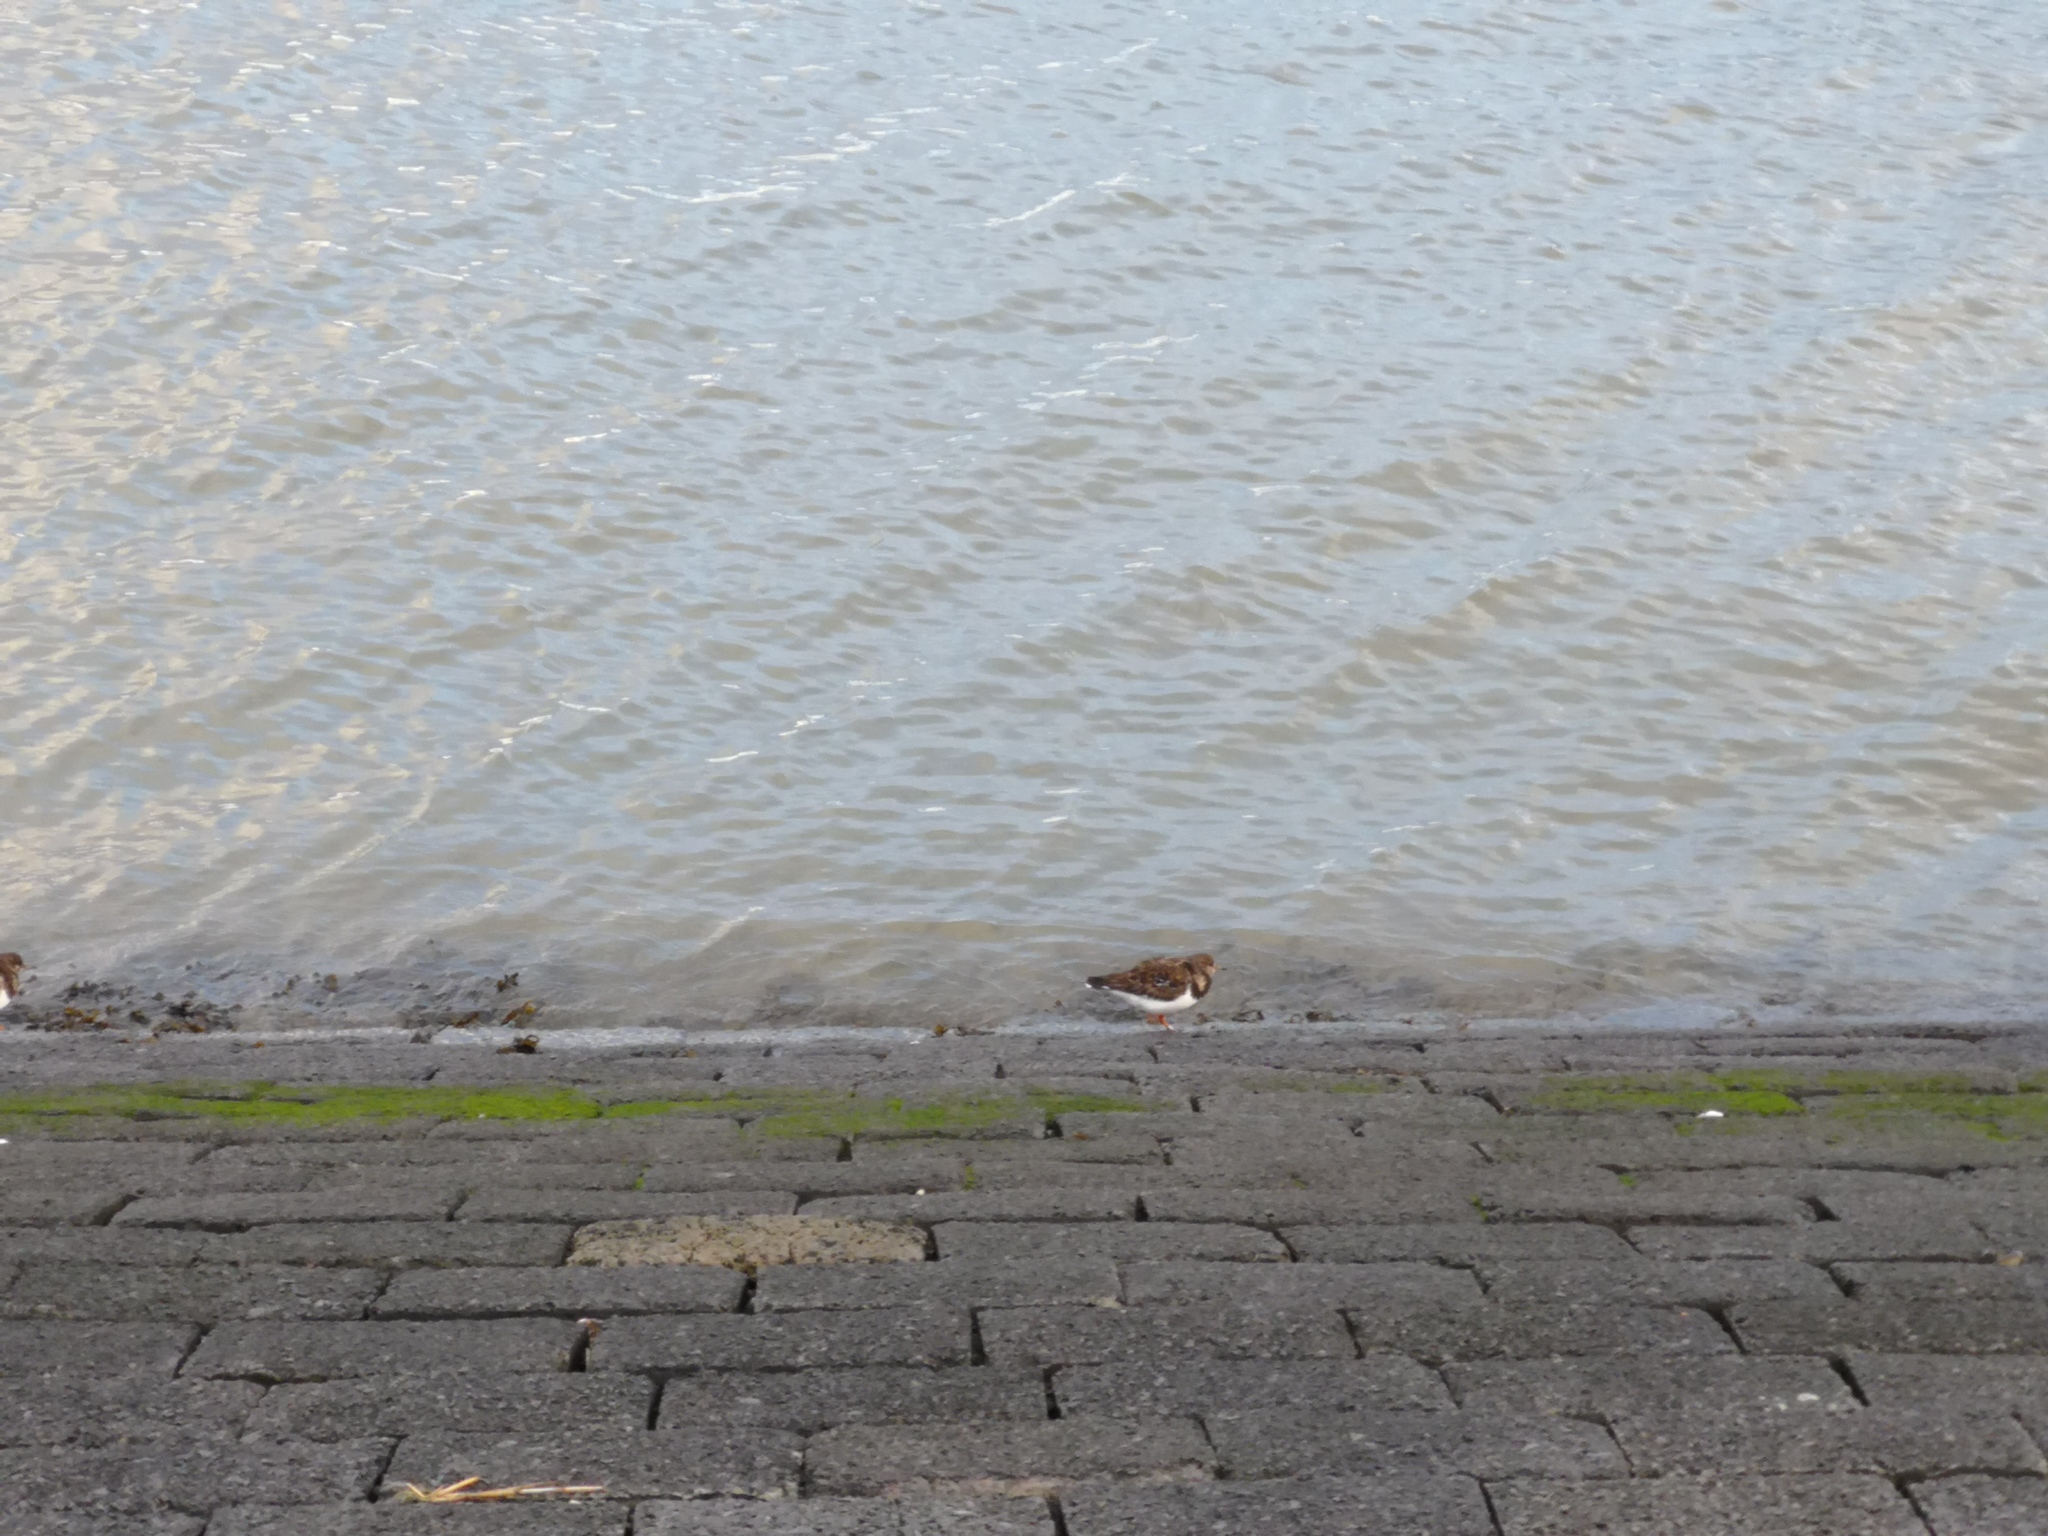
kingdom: Animalia
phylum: Chordata
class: Aves
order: Charadriiformes
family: Scolopacidae
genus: Arenaria
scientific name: Arenaria interpres
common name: Ruddy turnstone
